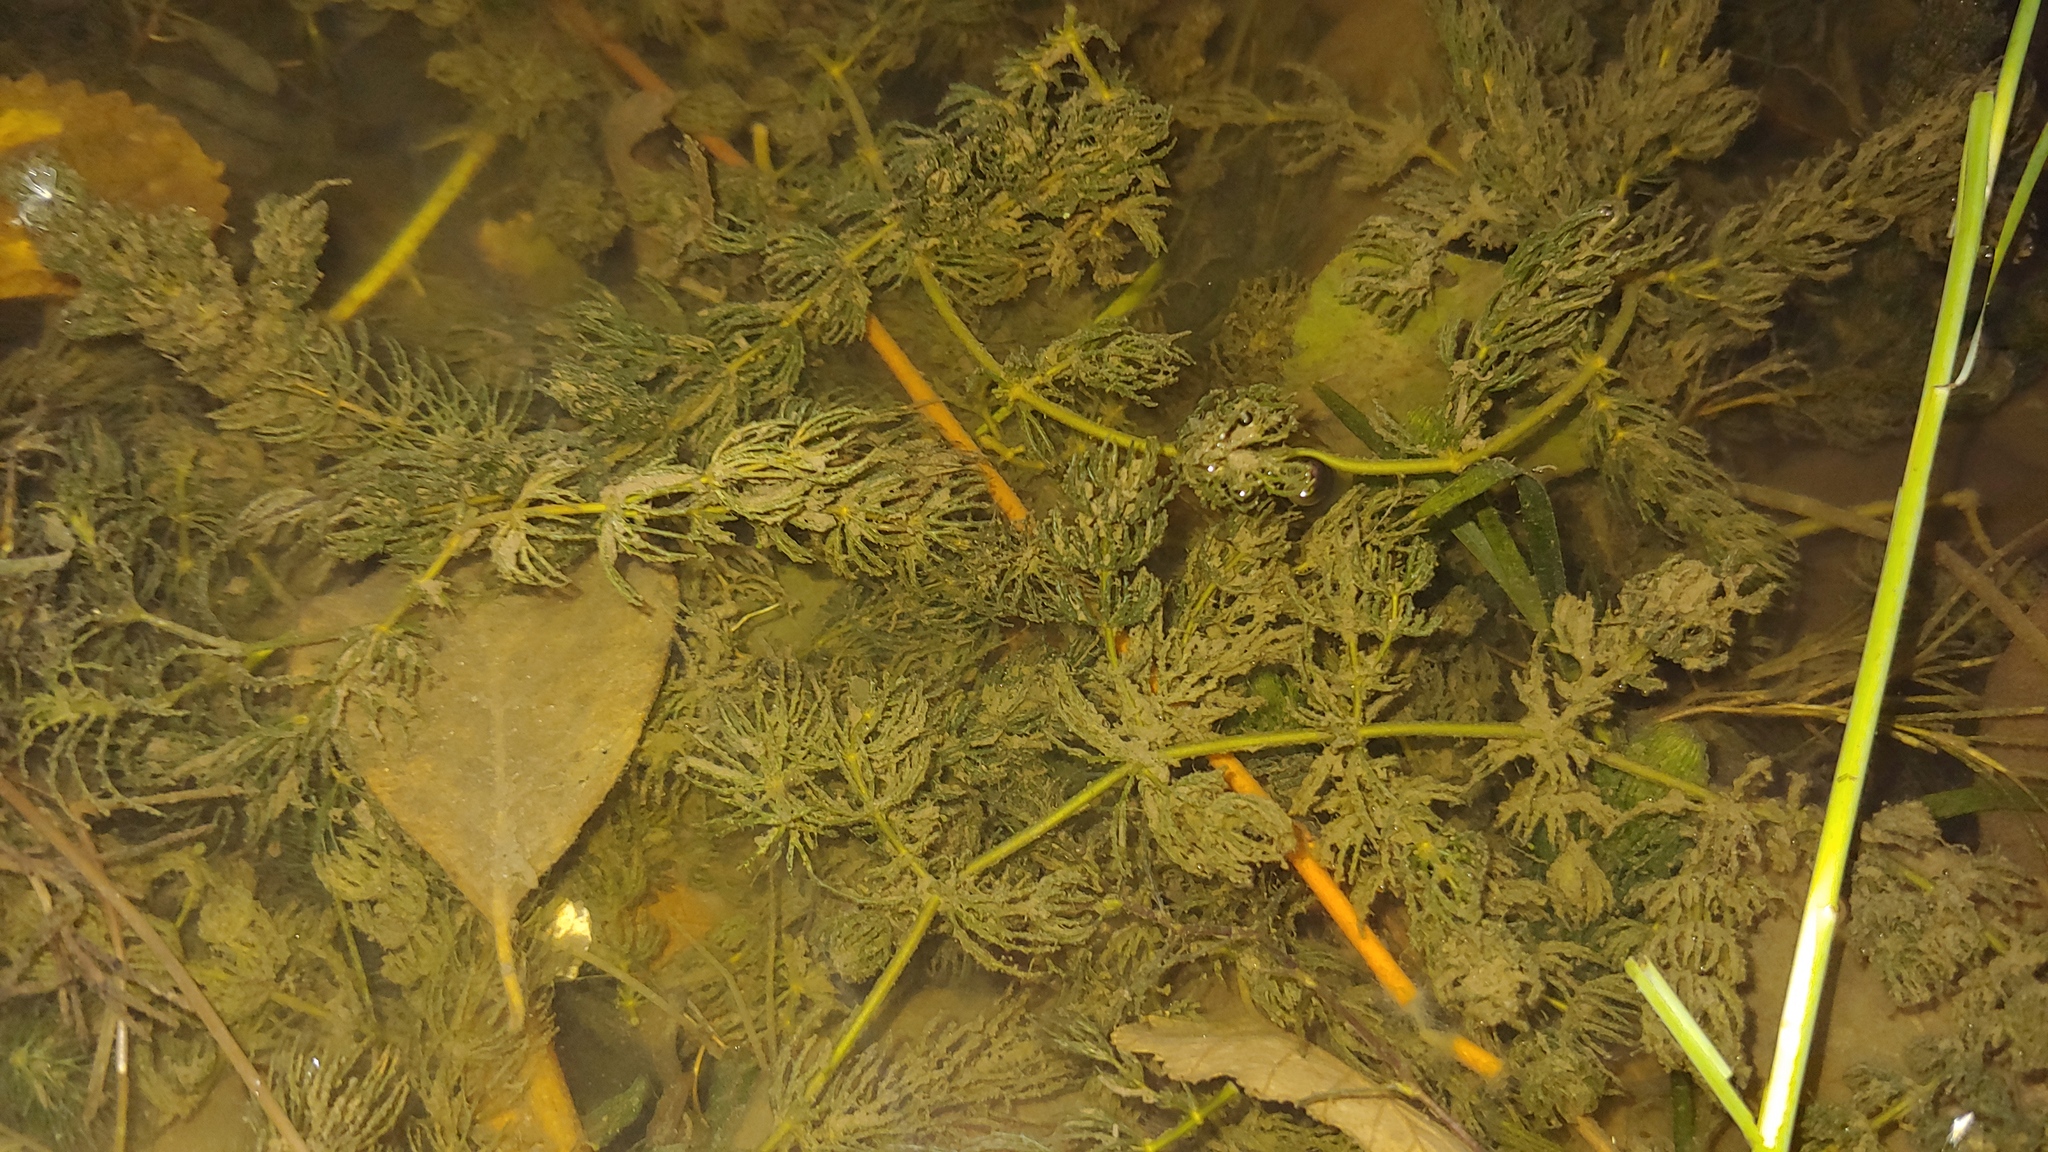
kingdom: Plantae
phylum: Tracheophyta
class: Magnoliopsida
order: Ceratophyllales
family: Ceratophyllaceae
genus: Ceratophyllum
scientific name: Ceratophyllum demersum
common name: Rigid hornwort
